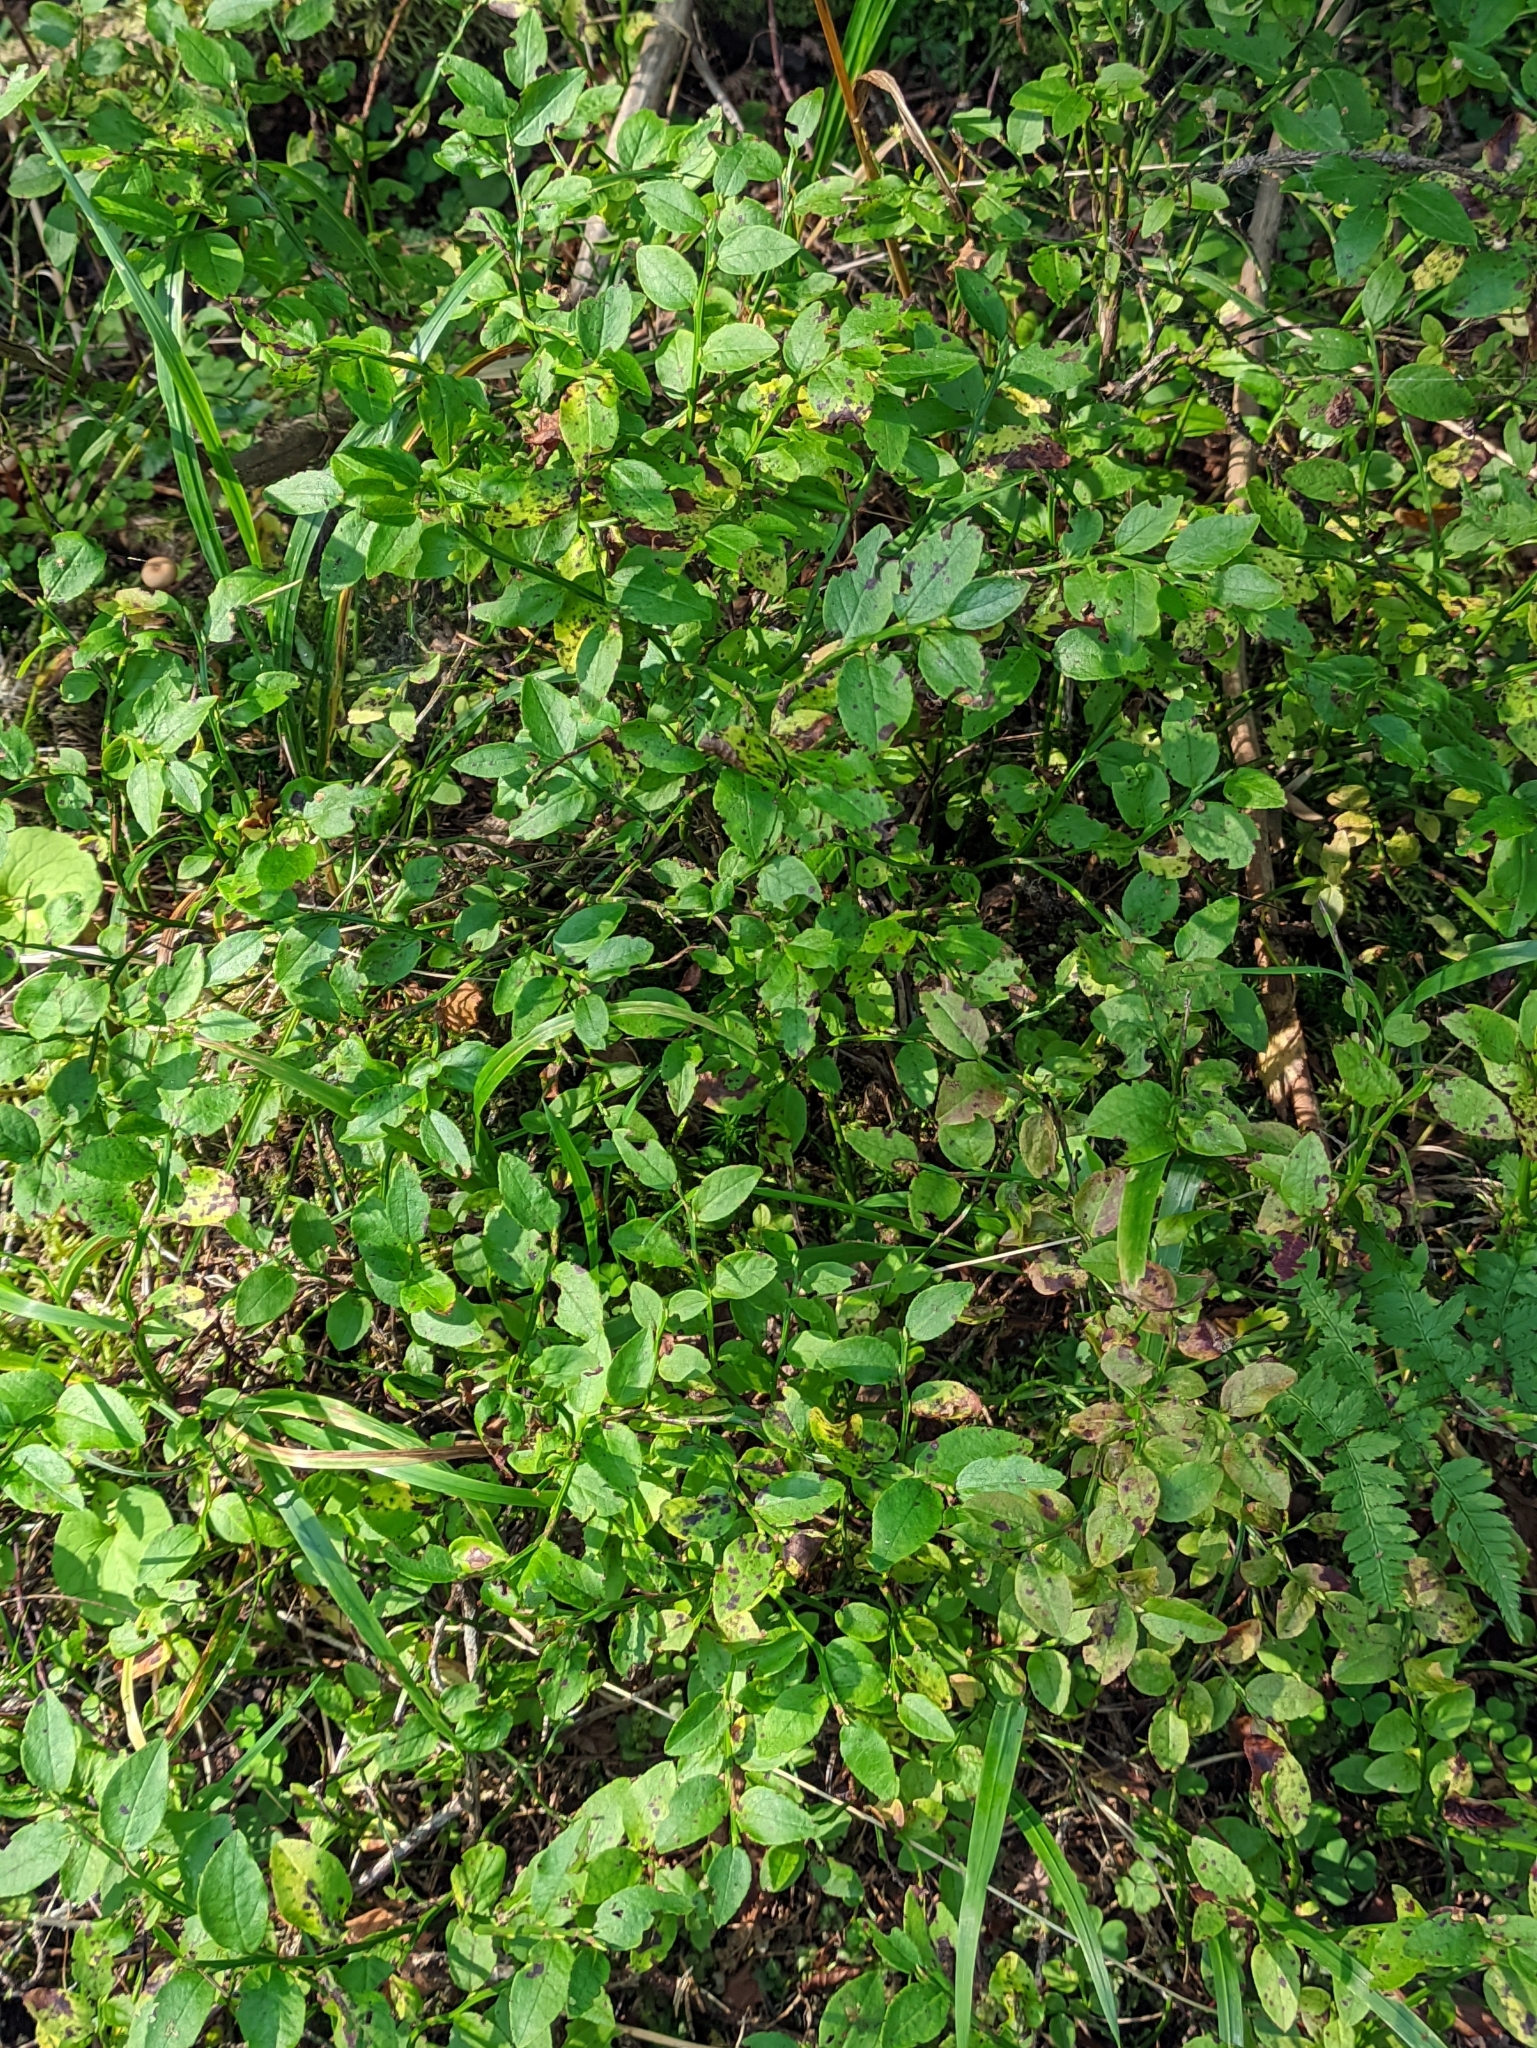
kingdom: Plantae
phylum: Tracheophyta
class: Magnoliopsida
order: Ericales
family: Ericaceae
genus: Vaccinium
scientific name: Vaccinium myrtillus
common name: Bilberry
